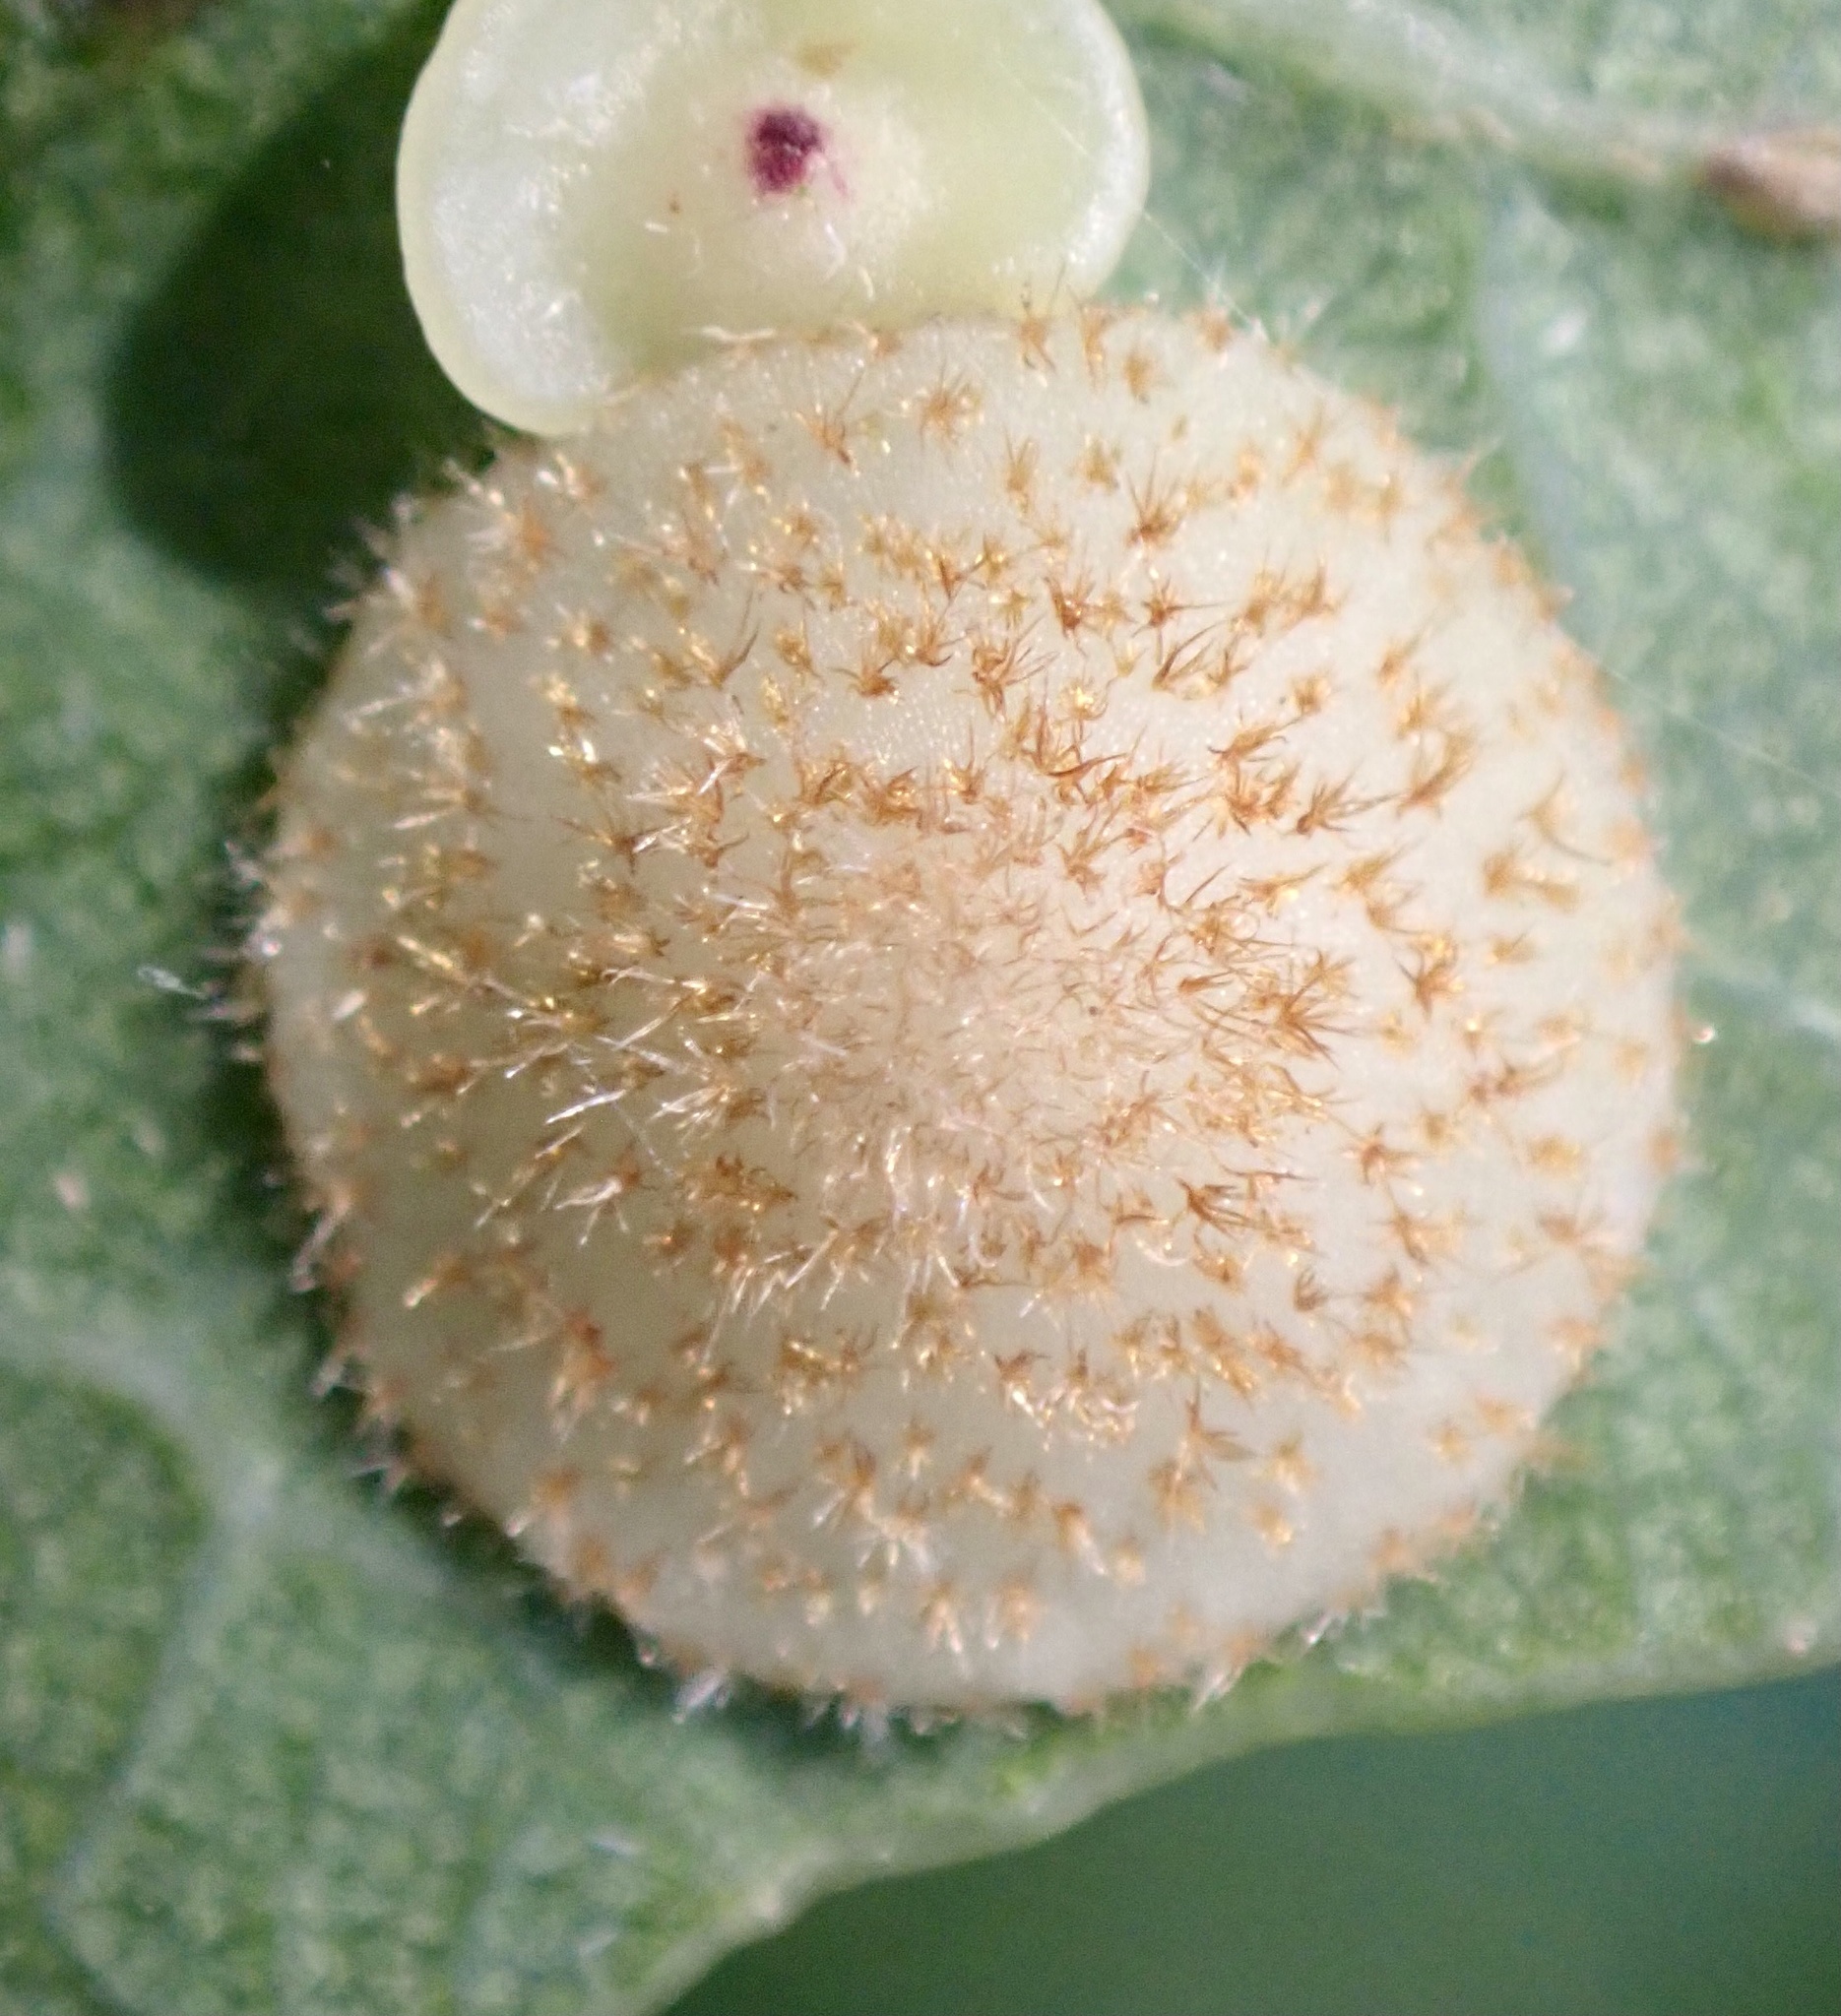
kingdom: Animalia
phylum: Arthropoda
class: Insecta
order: Hymenoptera
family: Cynipidae
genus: Neuroterus
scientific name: Neuroterus quercusbaccarum
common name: Common spangle gall
